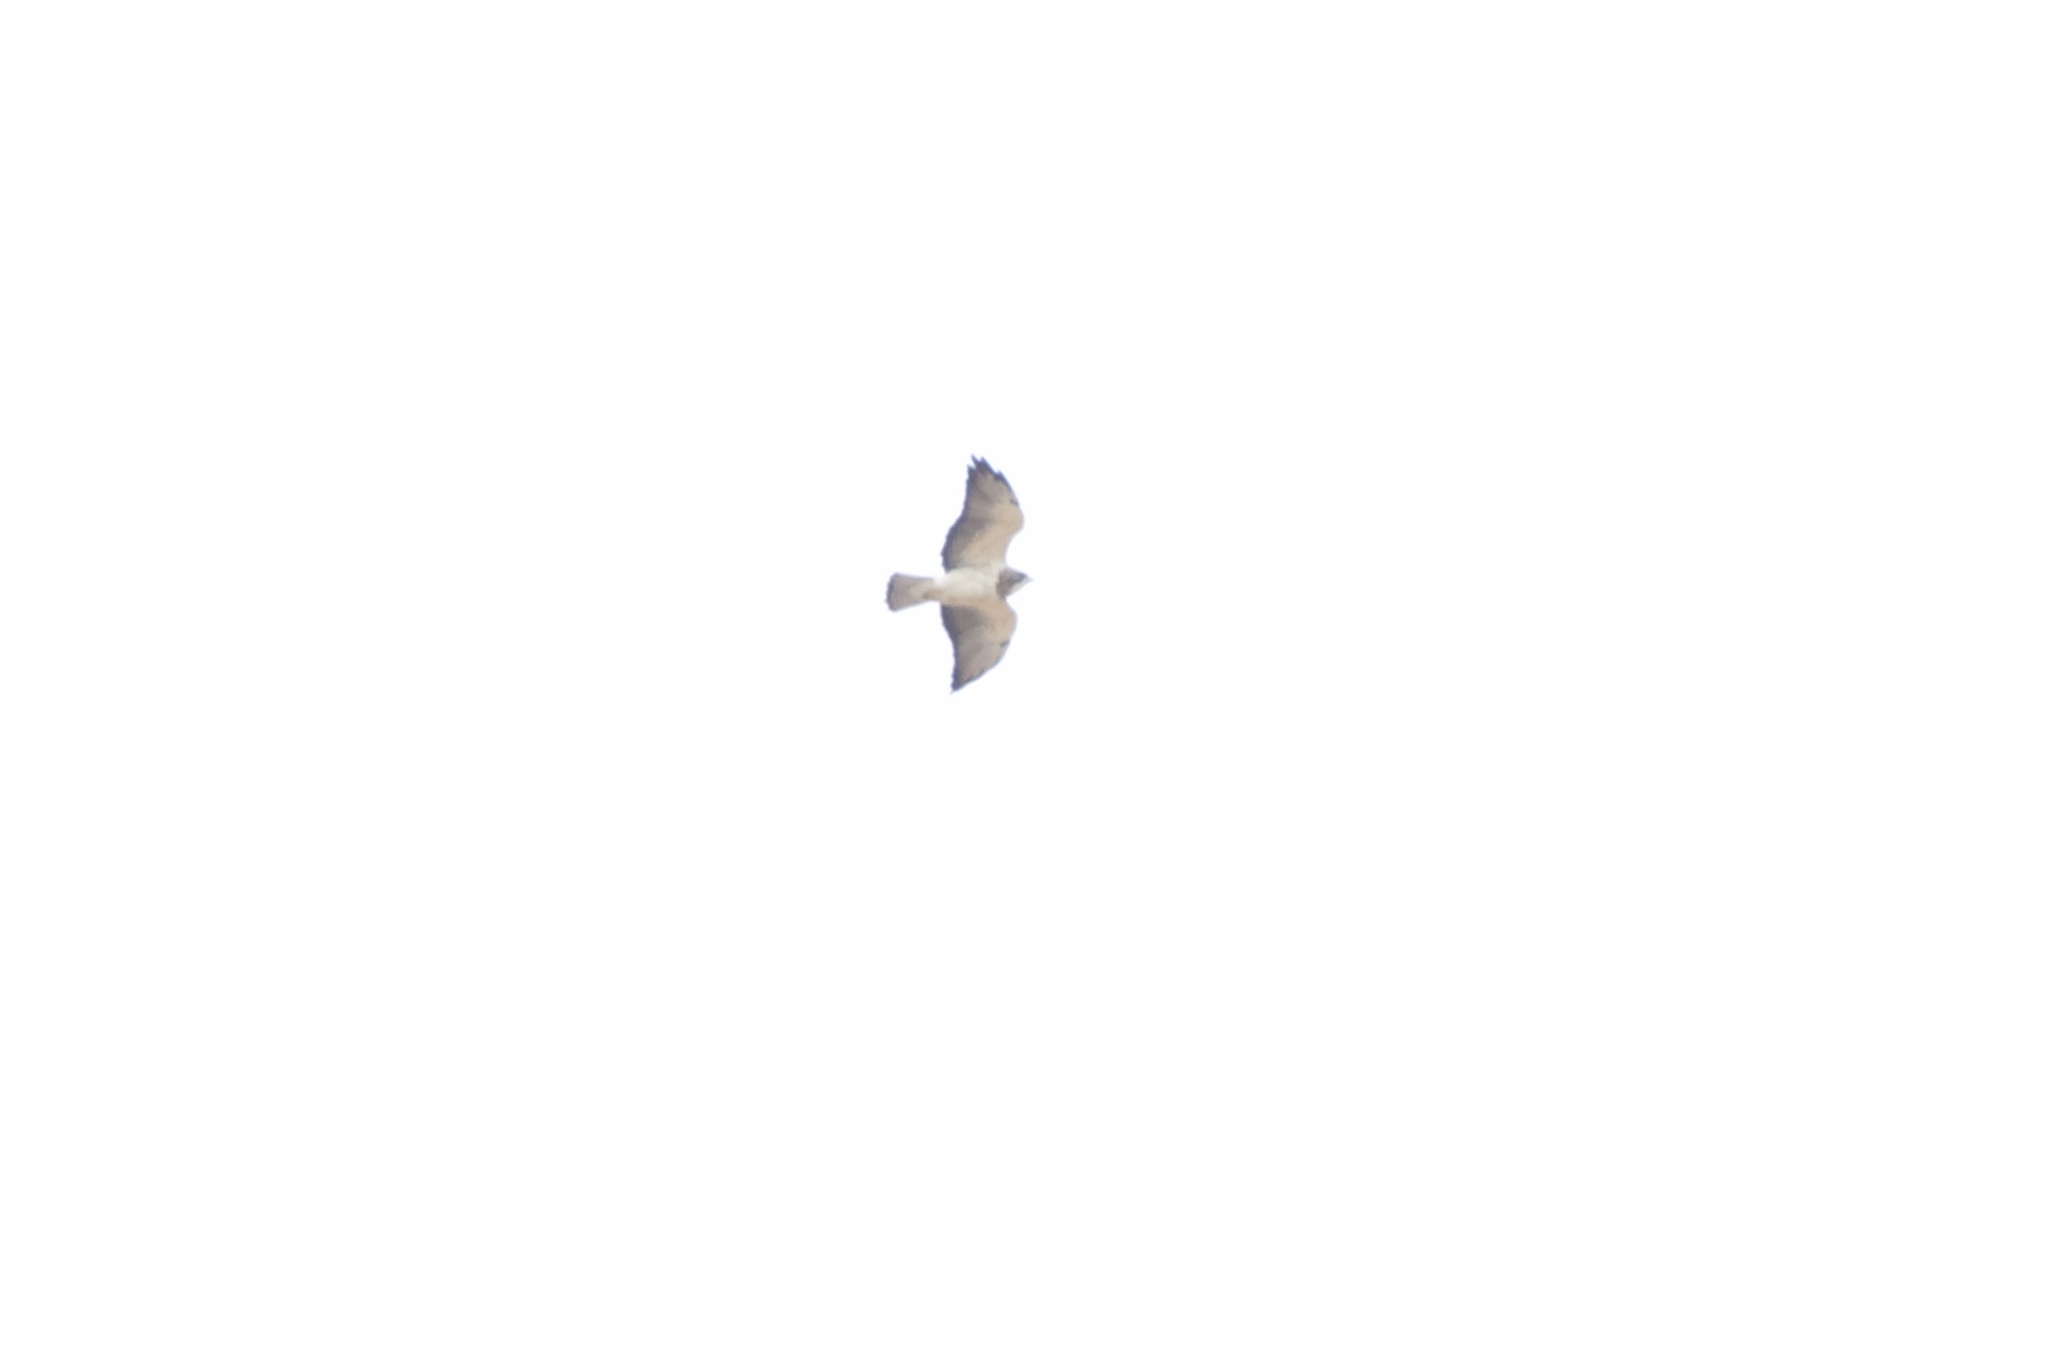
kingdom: Animalia
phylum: Chordata
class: Aves
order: Accipitriformes
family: Accipitridae
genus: Buteo
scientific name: Buteo swainsoni
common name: Swainson's hawk
